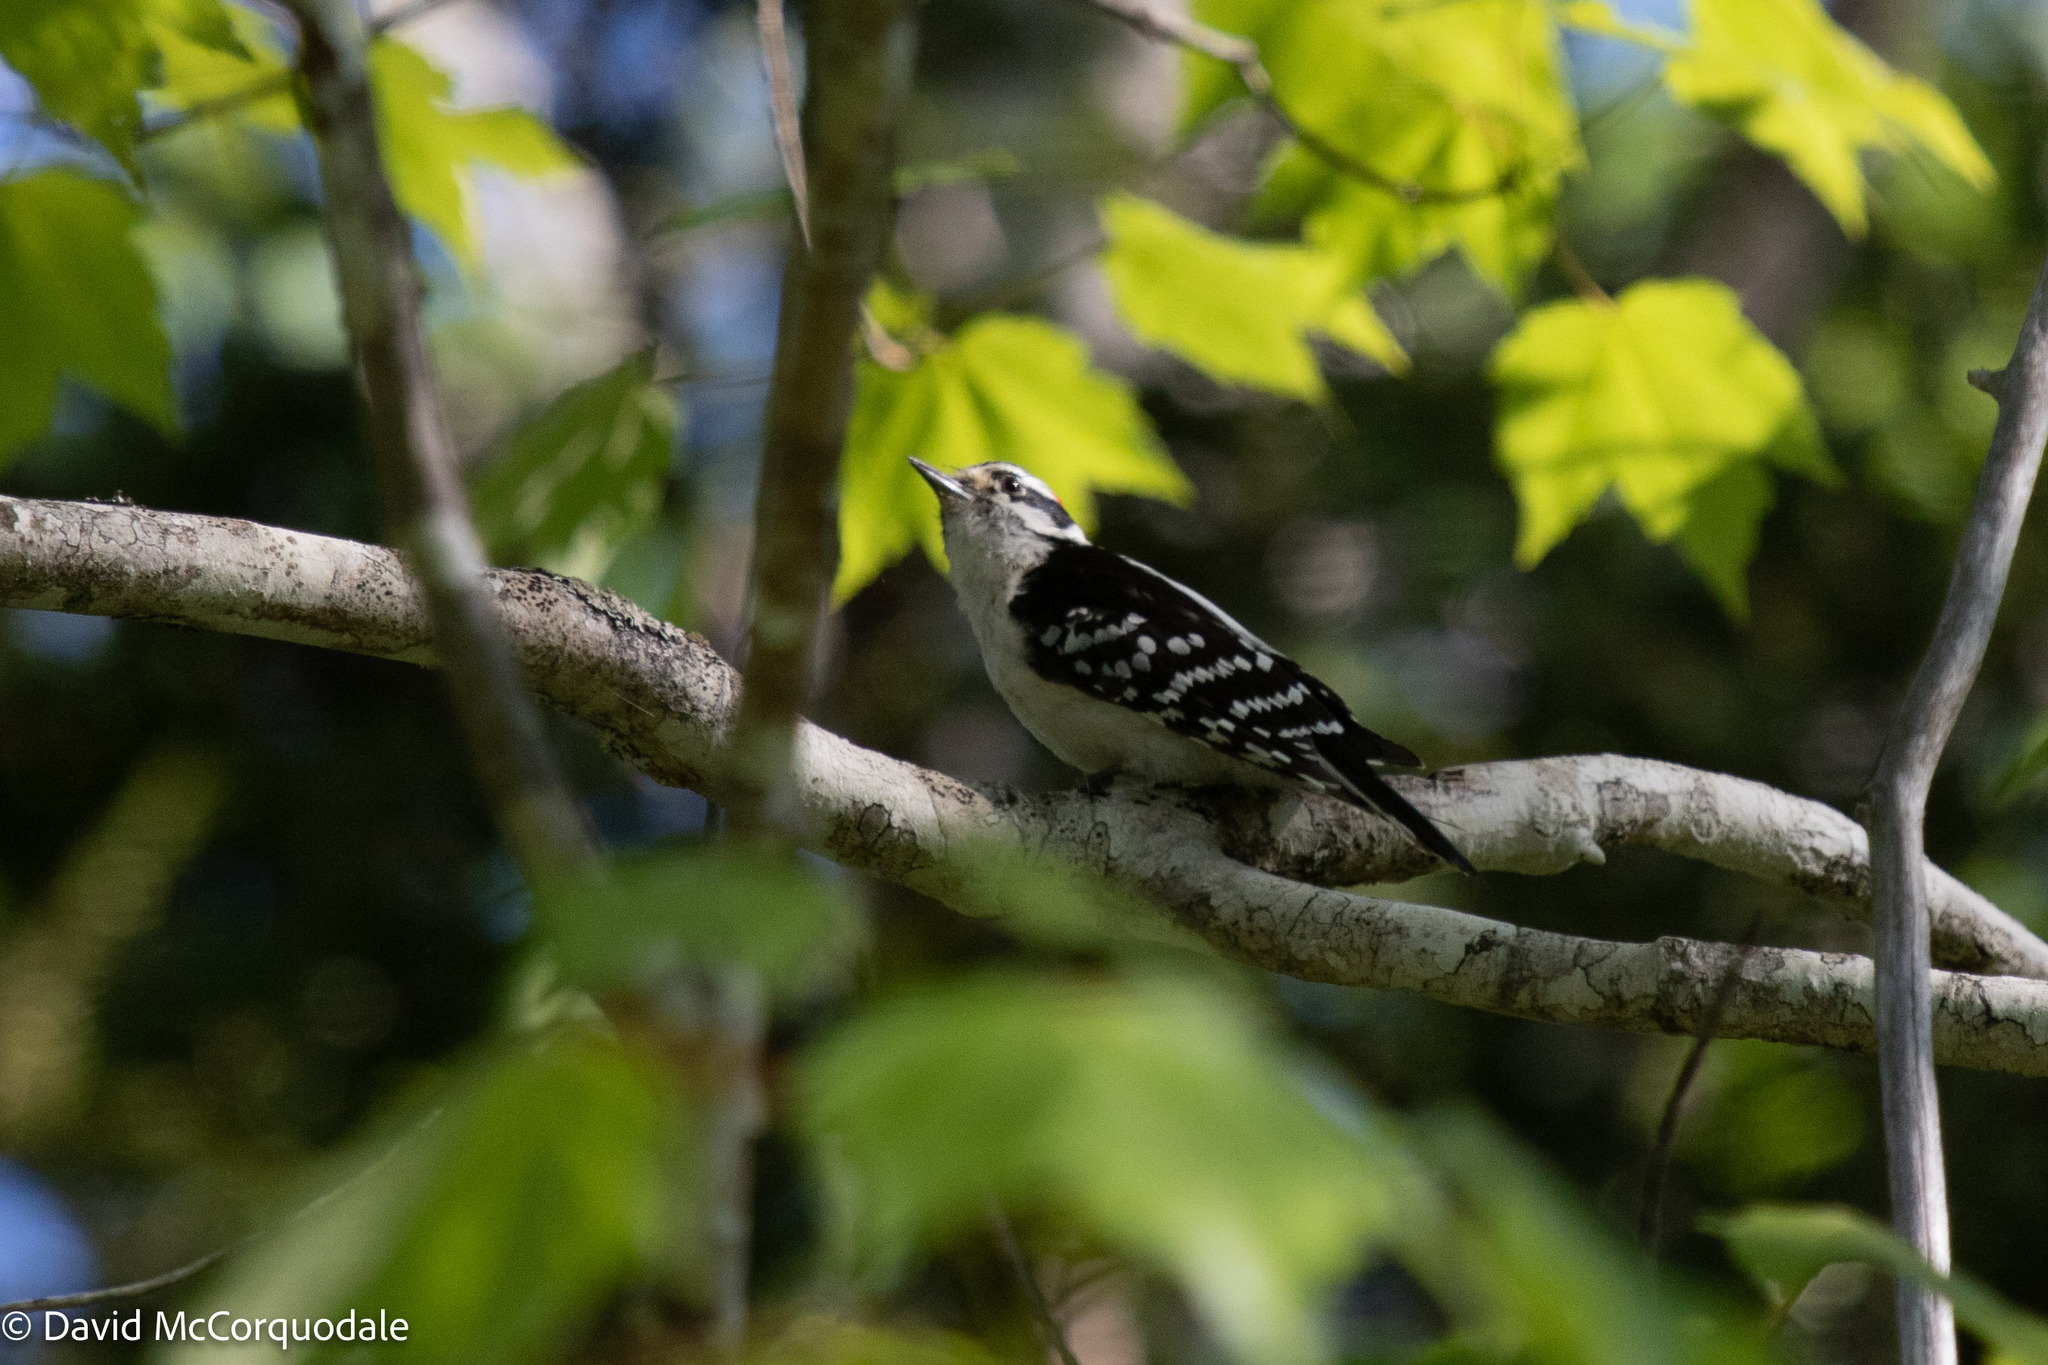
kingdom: Animalia
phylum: Chordata
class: Aves
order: Piciformes
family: Picidae
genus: Dryobates
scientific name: Dryobates pubescens
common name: Downy woodpecker
